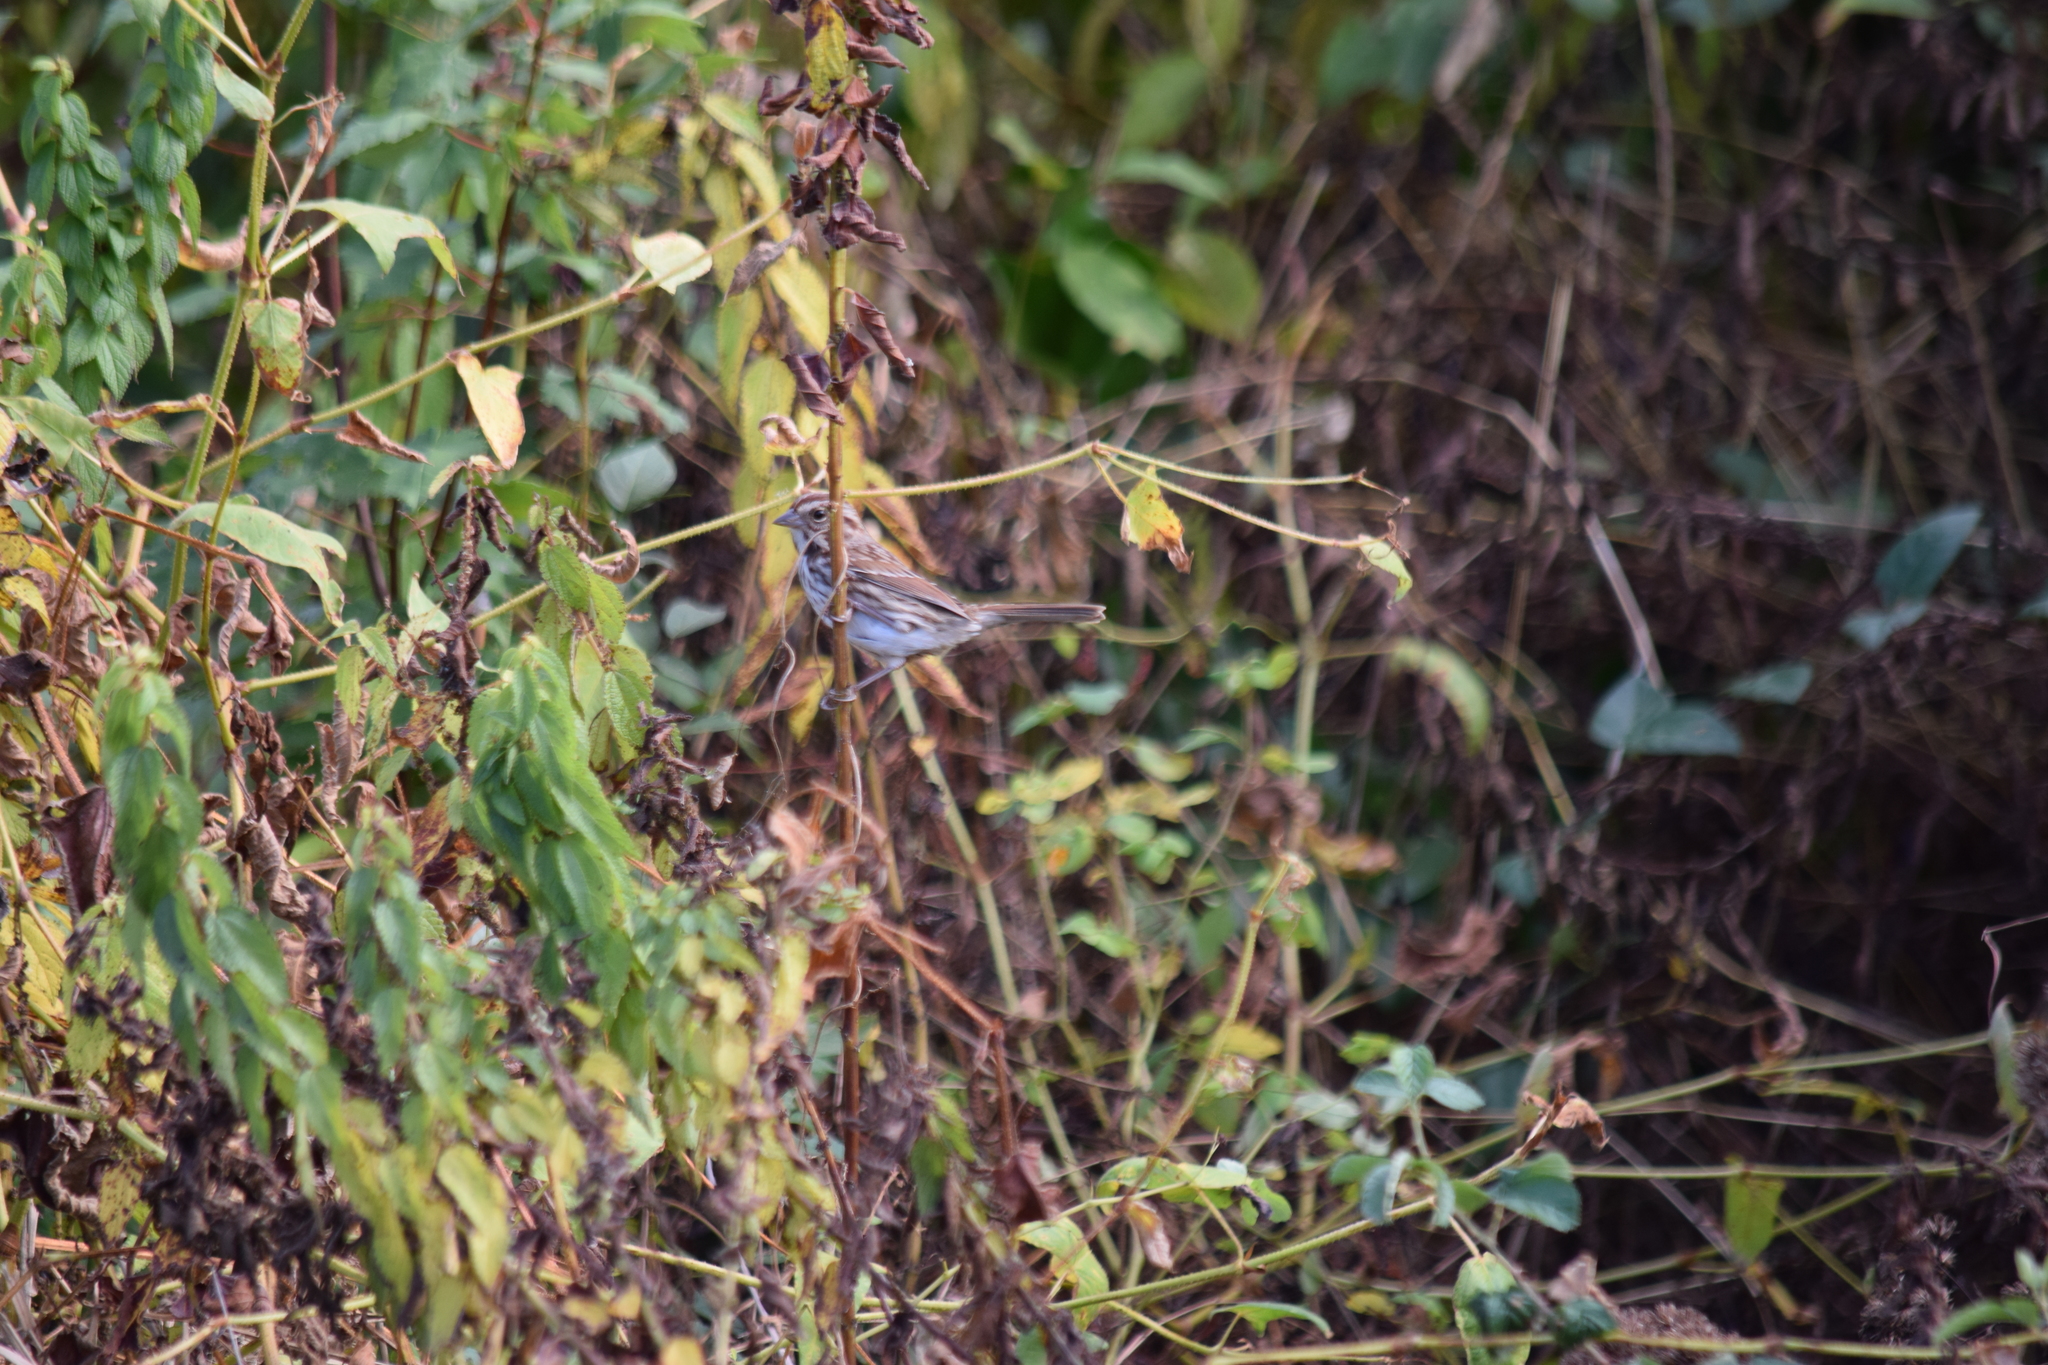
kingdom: Animalia
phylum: Chordata
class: Aves
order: Passeriformes
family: Passerellidae
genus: Melospiza
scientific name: Melospiza melodia
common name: Song sparrow
